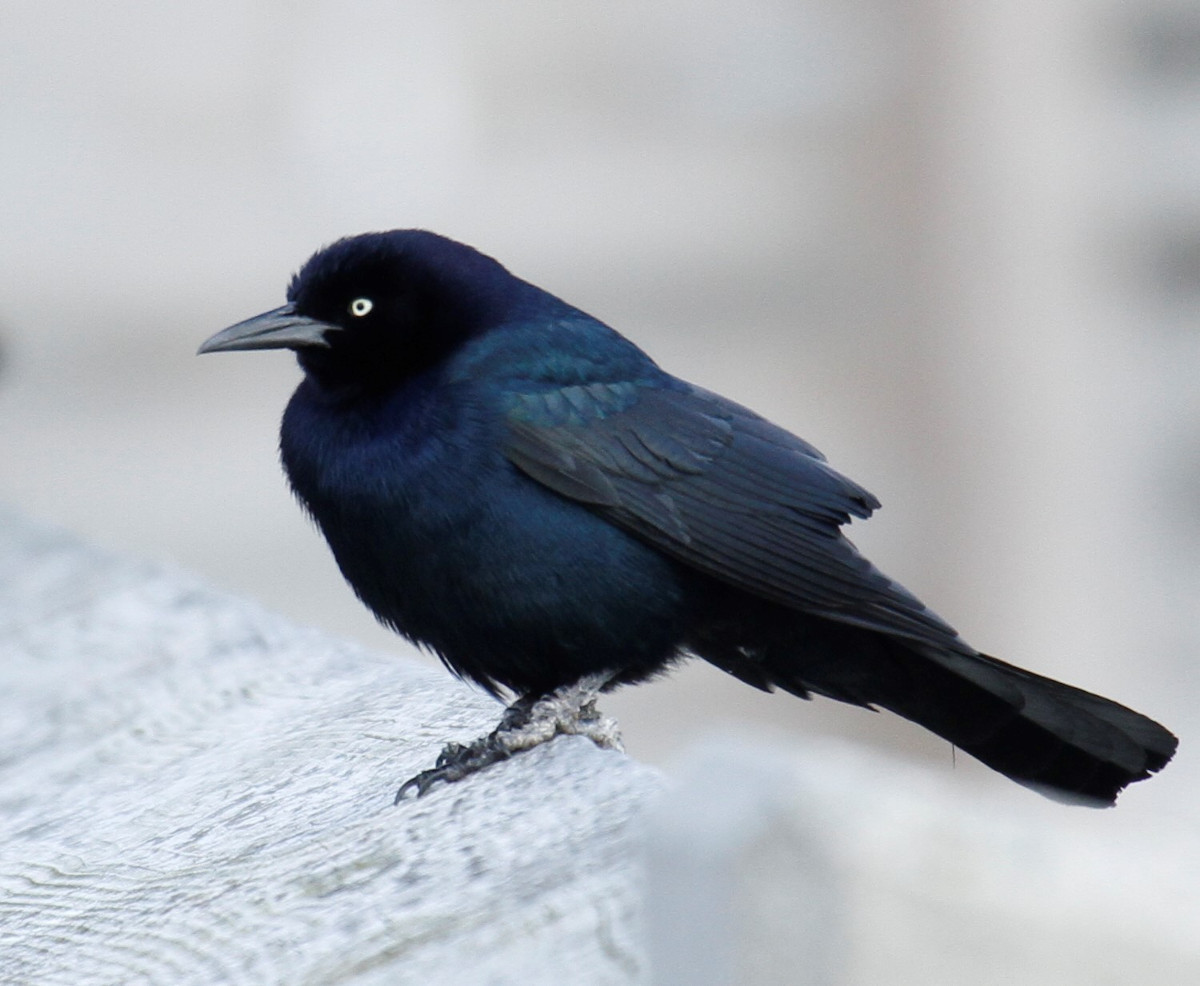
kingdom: Animalia
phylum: Chordata
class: Aves
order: Passeriformes
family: Icteridae
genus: Quiscalus
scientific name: Quiscalus major
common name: Boat-tailed grackle
